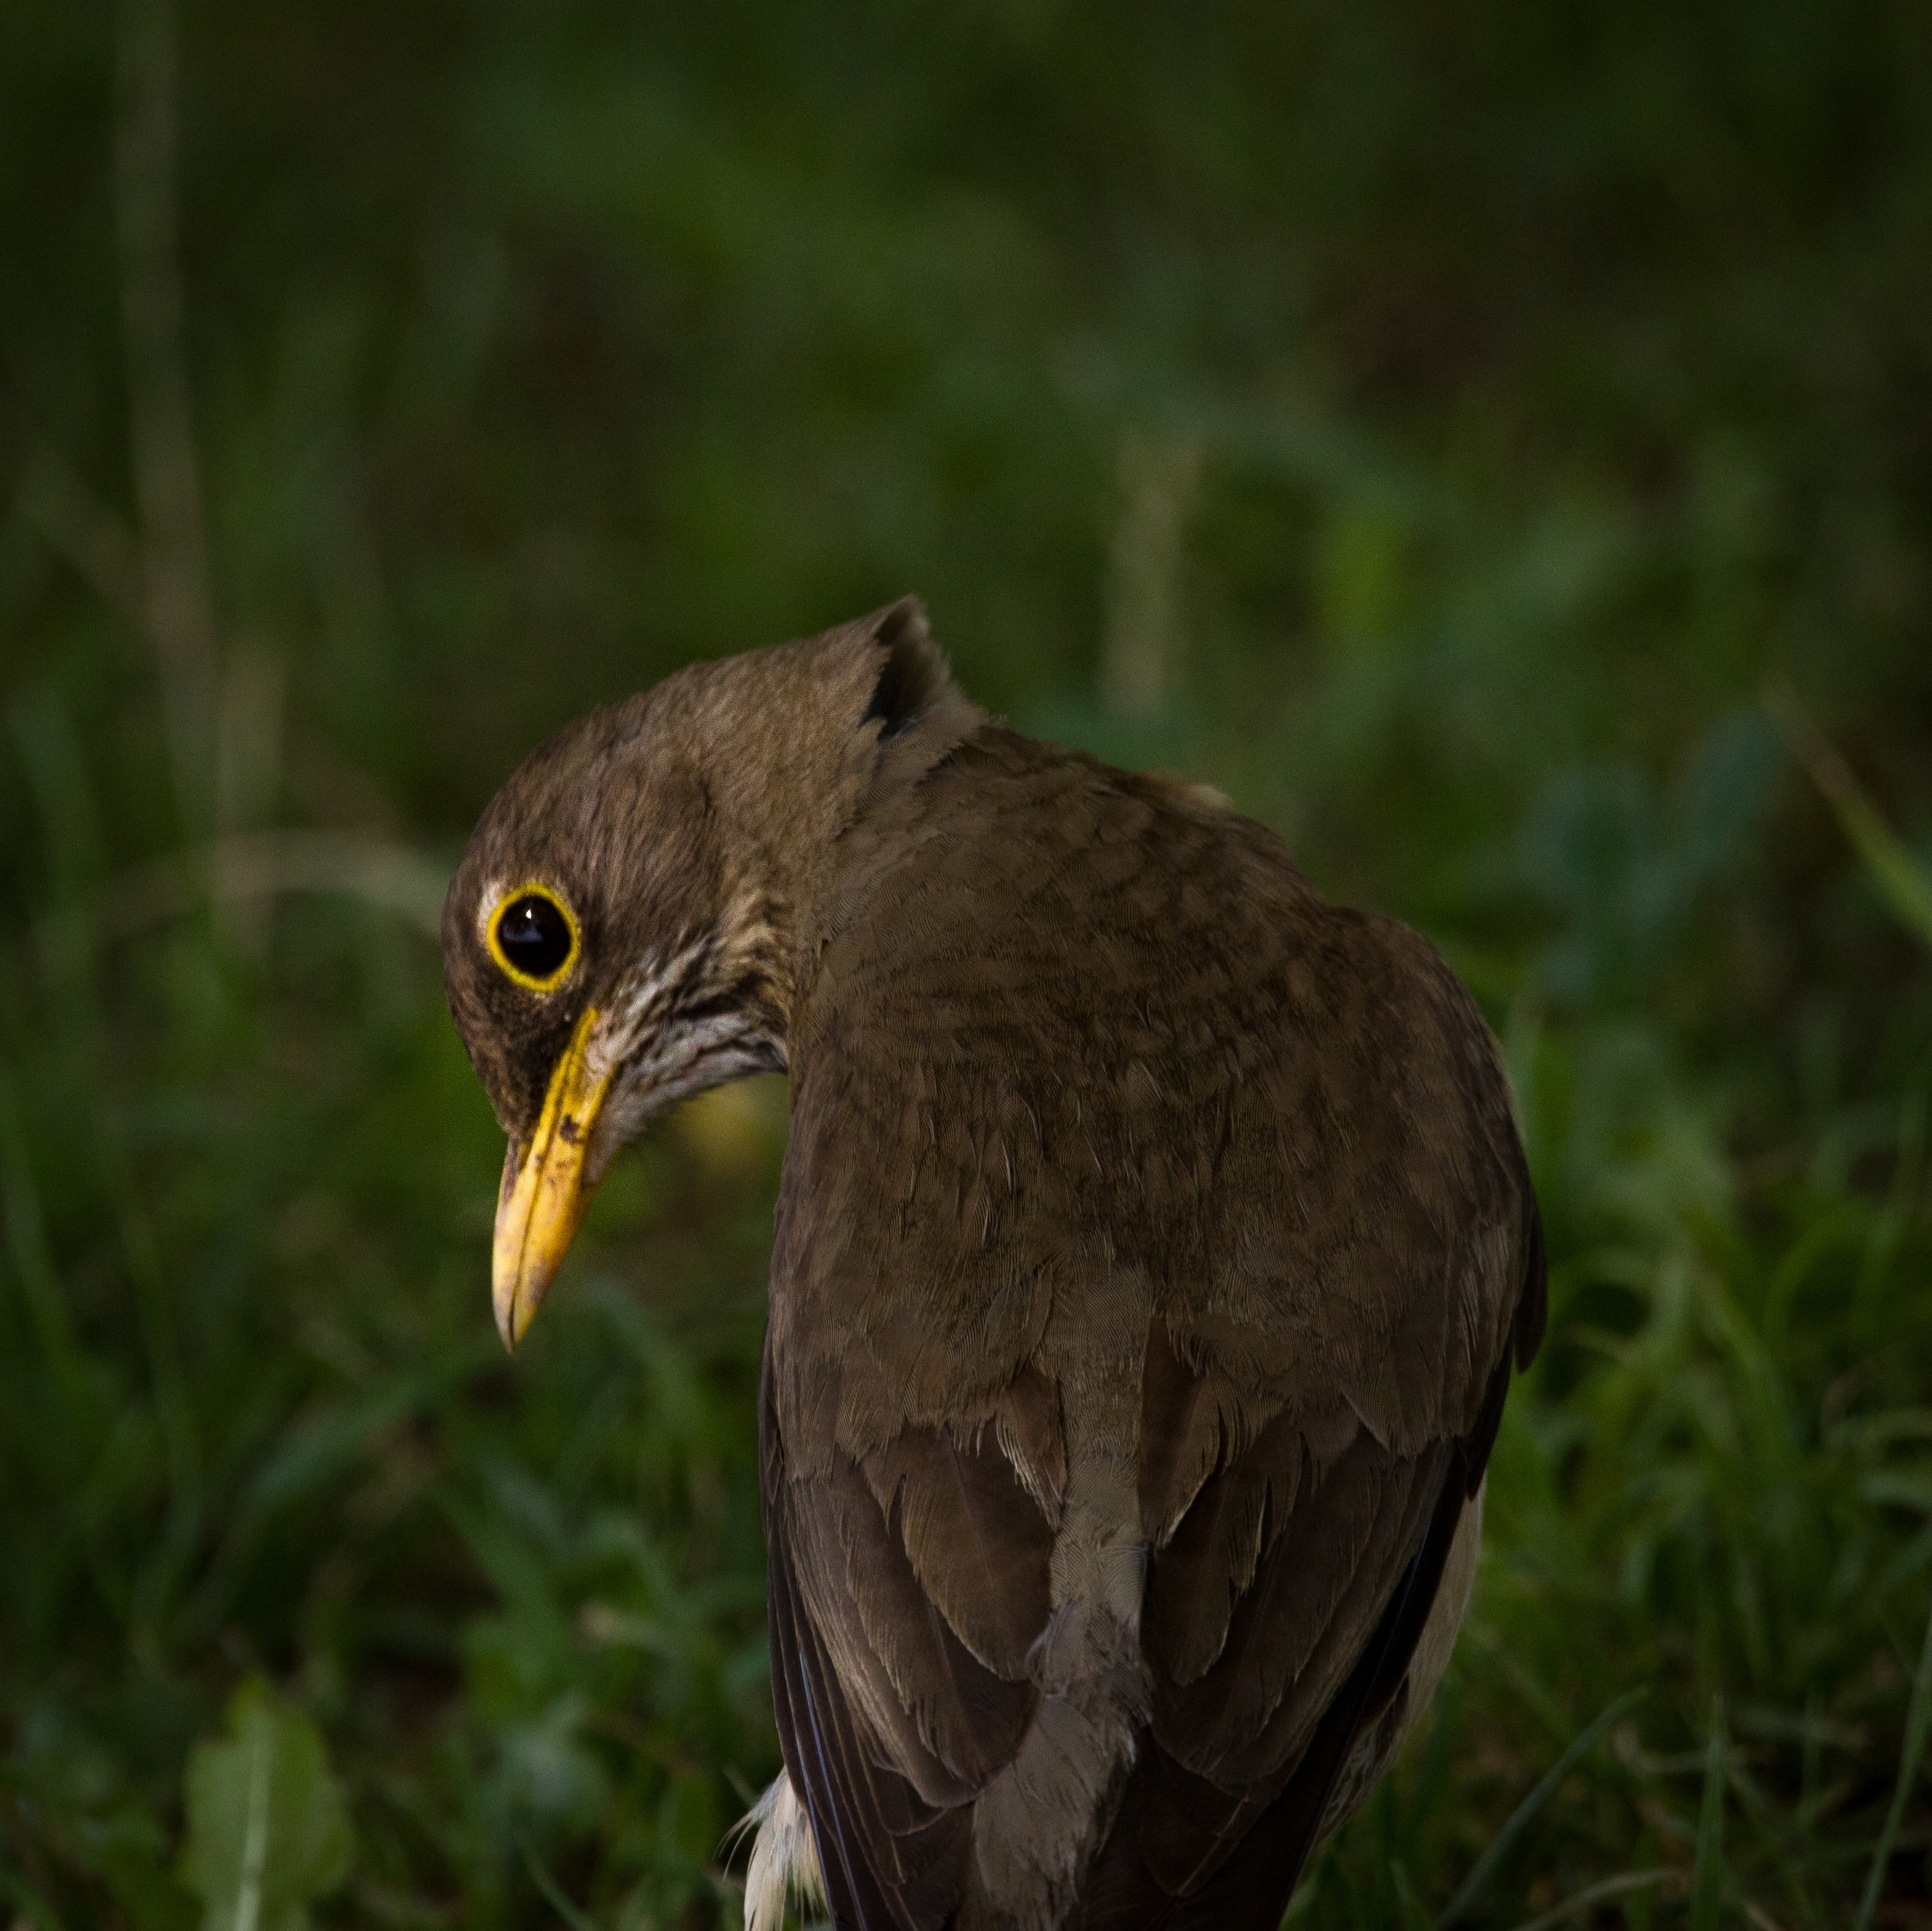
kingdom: Animalia
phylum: Chordata
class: Aves
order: Passeriformes
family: Turdidae
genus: Turdus
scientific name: Turdus falcklandii
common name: Austral thrush
